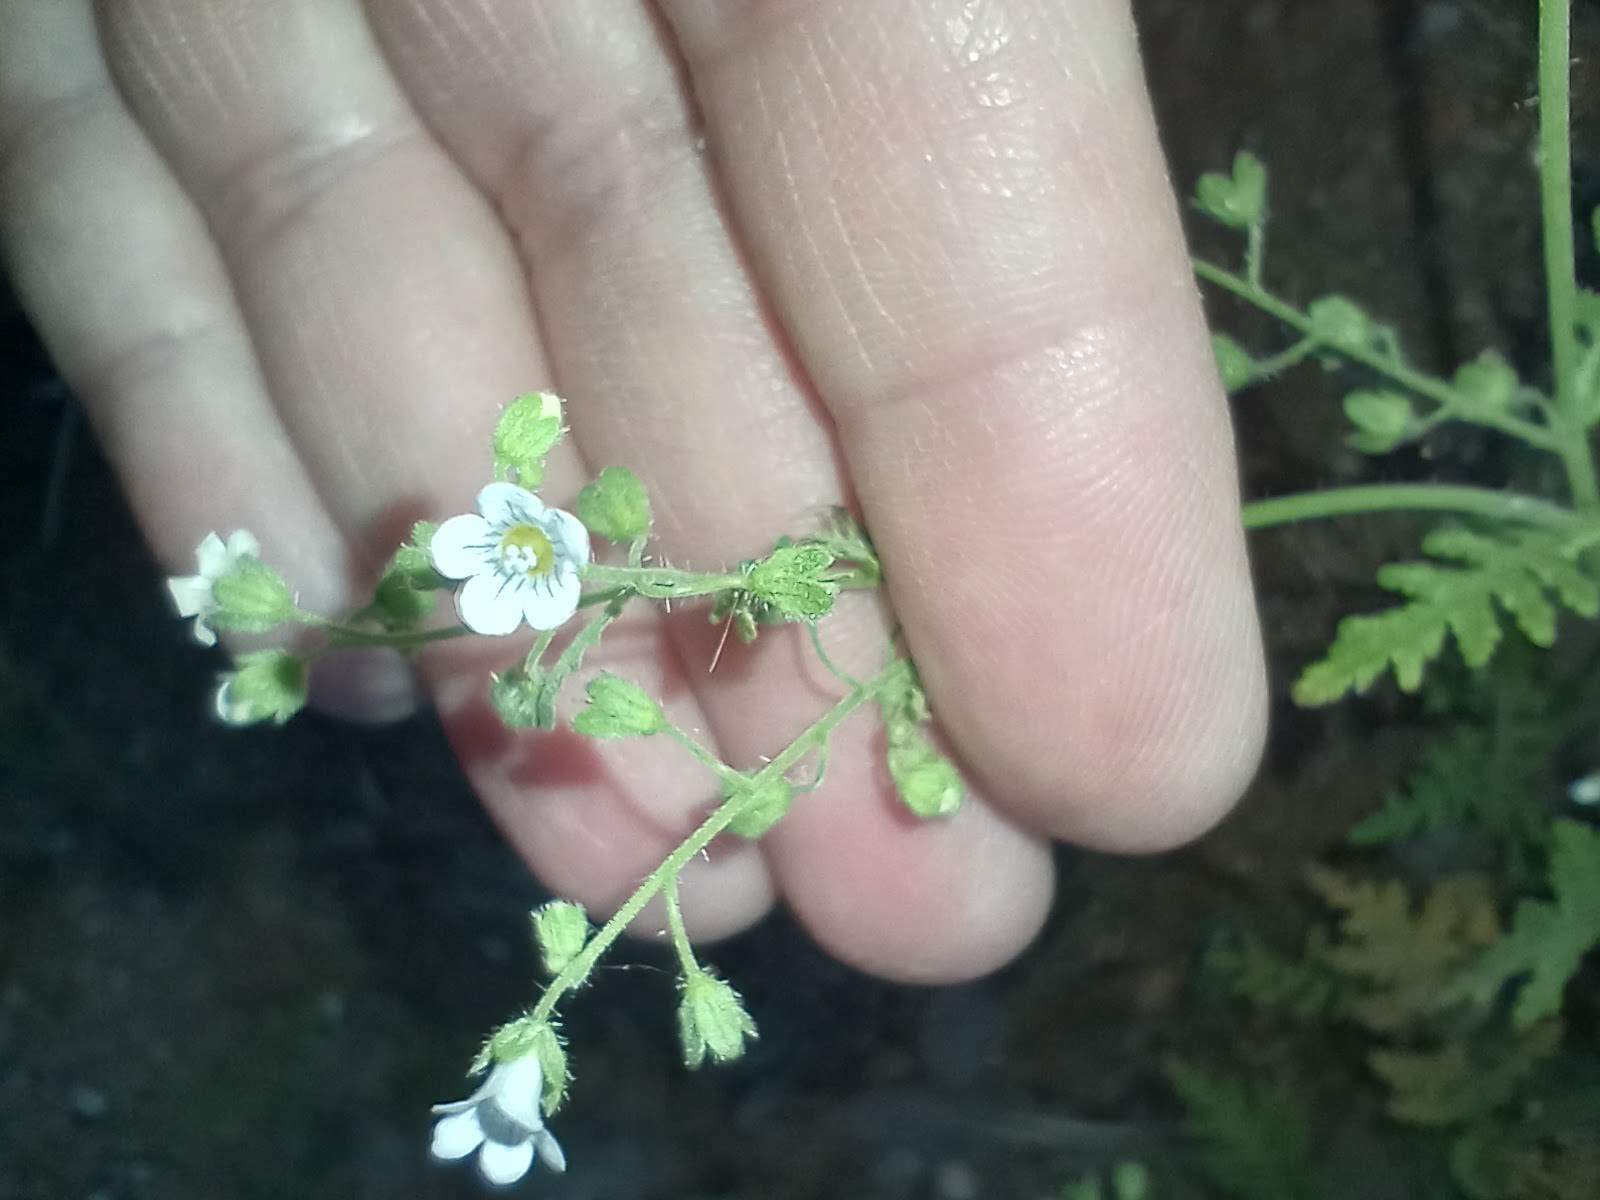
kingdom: Plantae
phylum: Tracheophyta
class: Magnoliopsida
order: Boraginales
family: Hydrophyllaceae
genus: Eucrypta
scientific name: Eucrypta chrysanthemifolia
